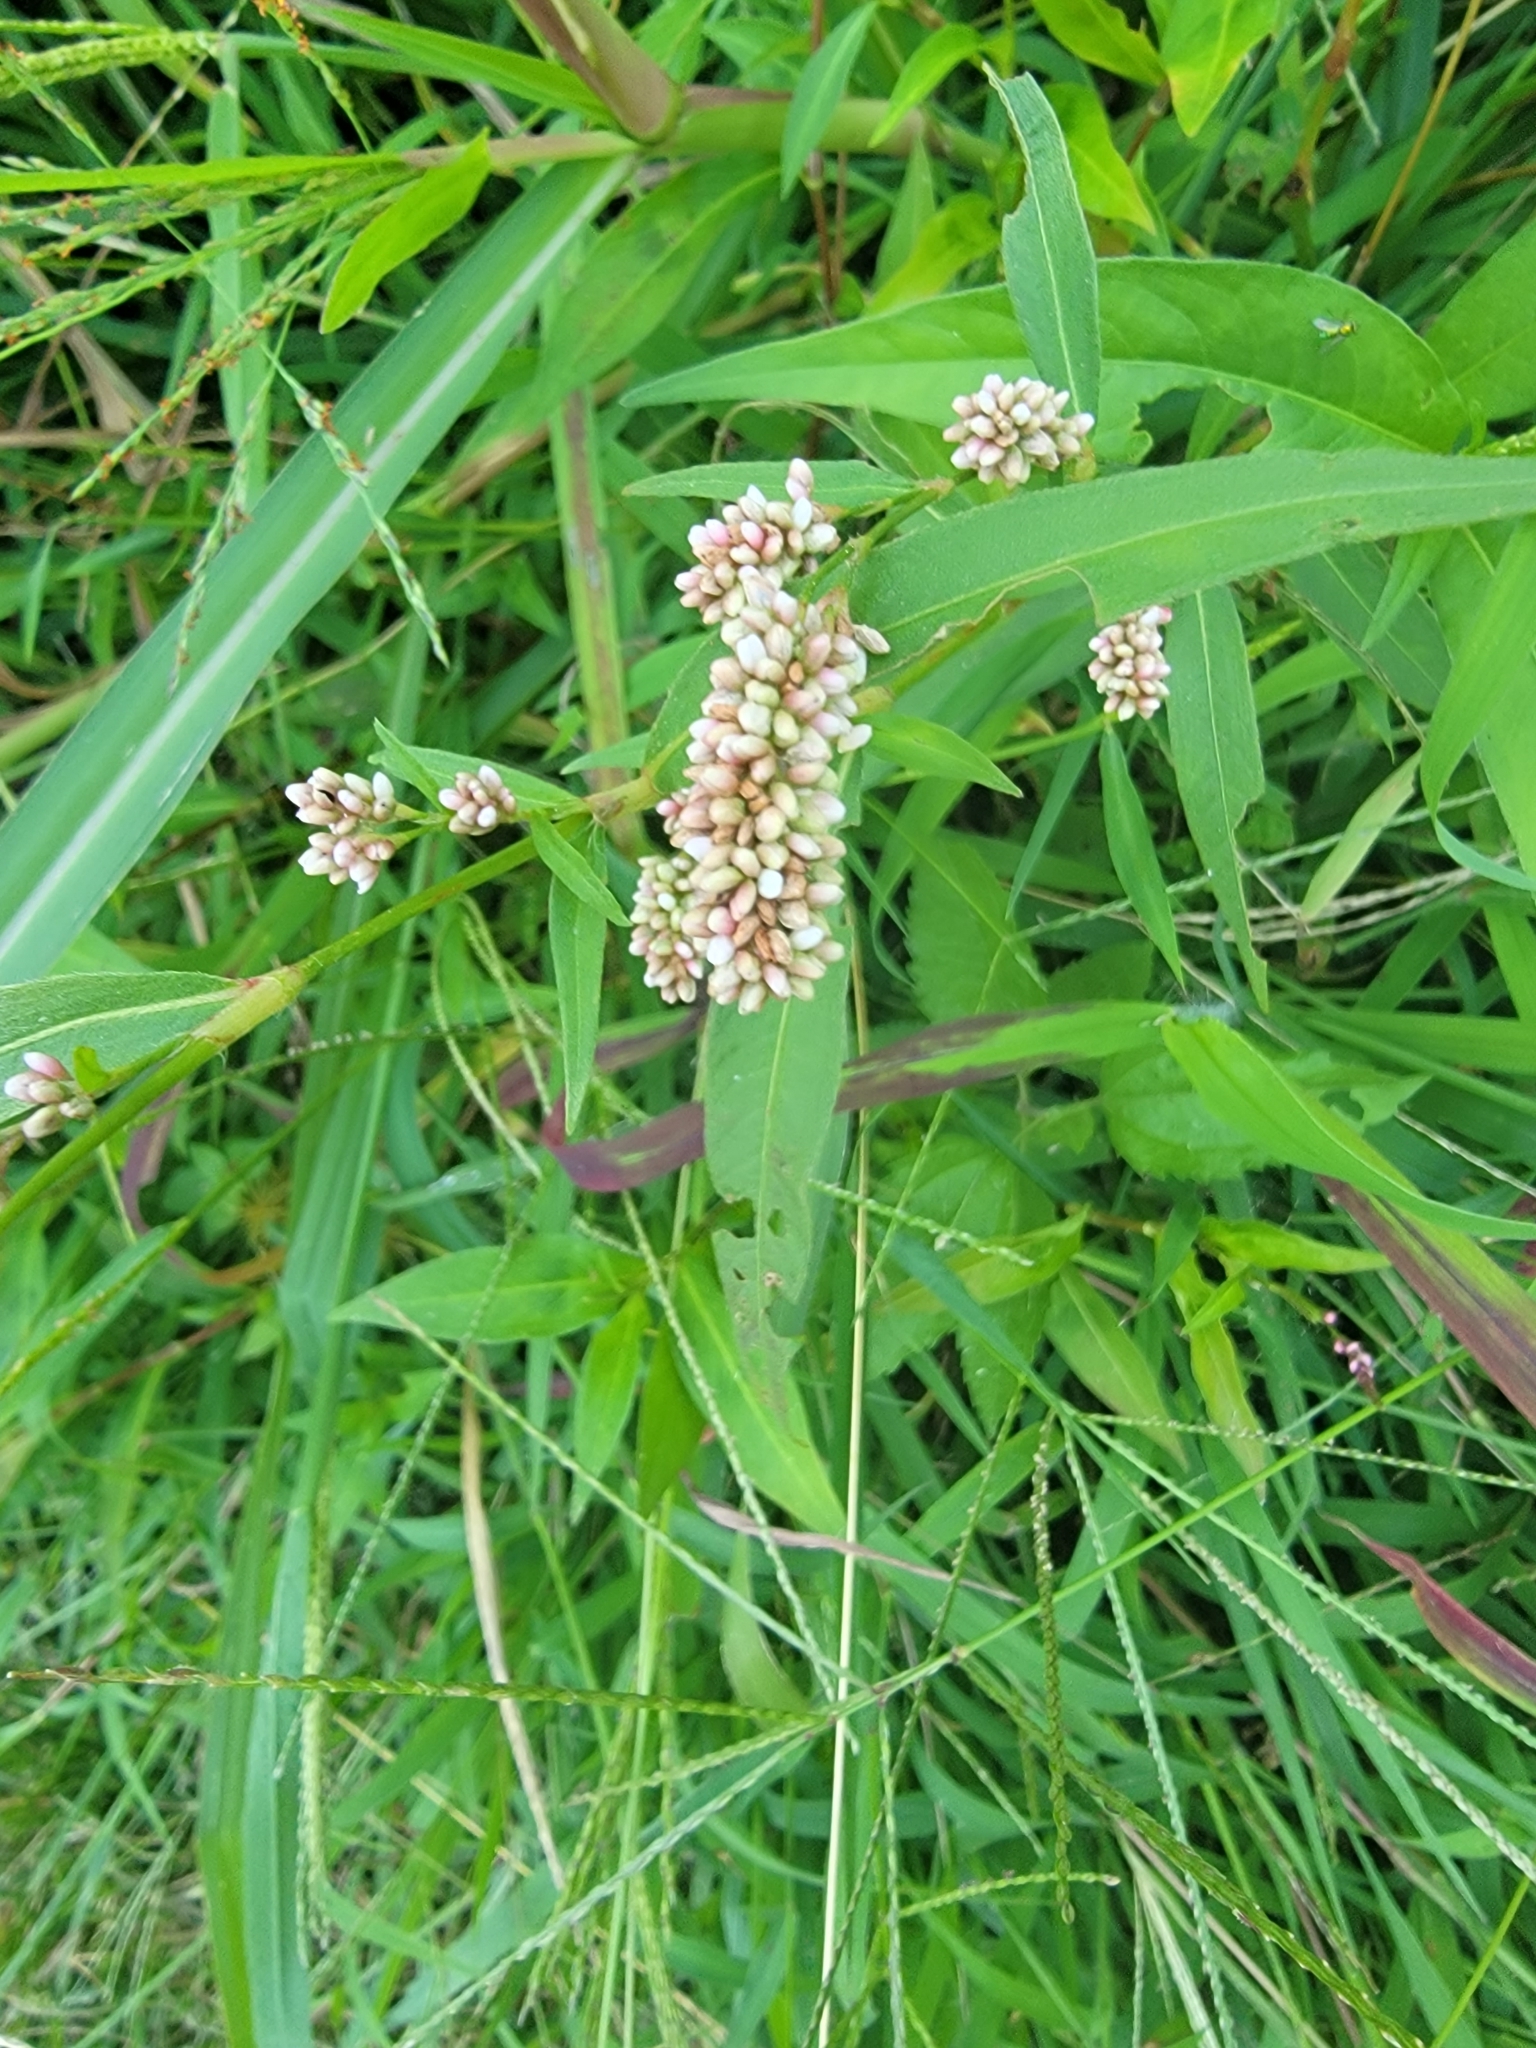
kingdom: Plantae
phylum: Tracheophyta
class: Magnoliopsida
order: Caryophyllales
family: Polygonaceae
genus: Persicaria
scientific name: Persicaria pensylvanica
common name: Pinkweed
